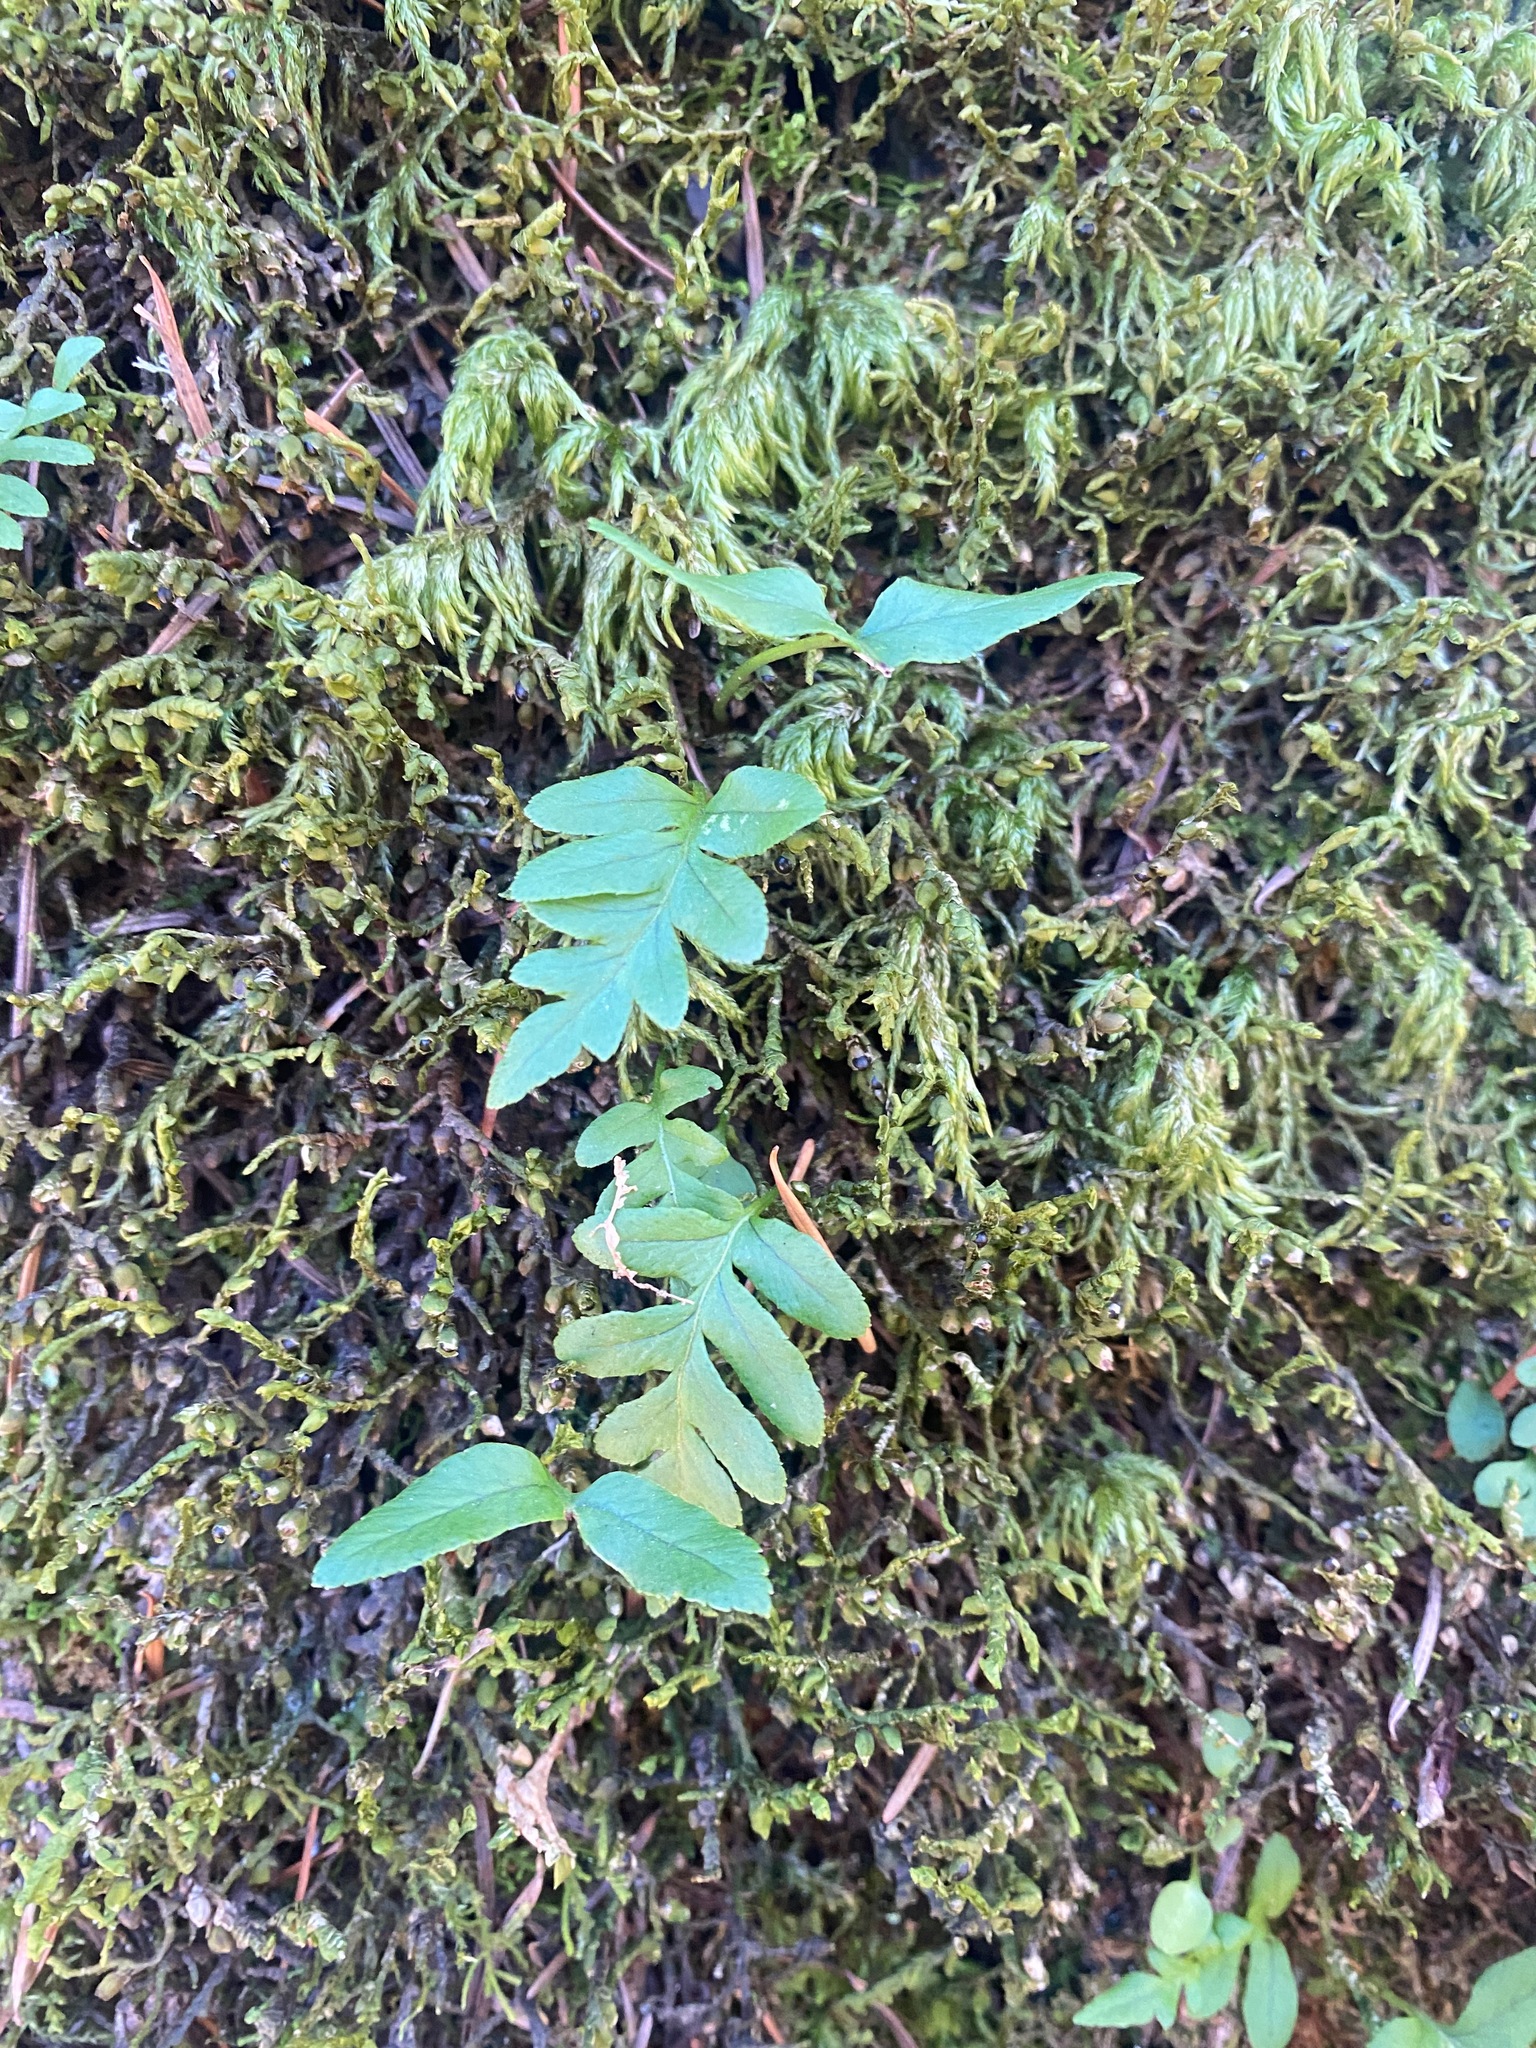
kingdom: Plantae
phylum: Tracheophyta
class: Polypodiopsida
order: Polypodiales
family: Polypodiaceae
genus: Polypodium
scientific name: Polypodium glycyrrhiza
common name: Licorice fern
